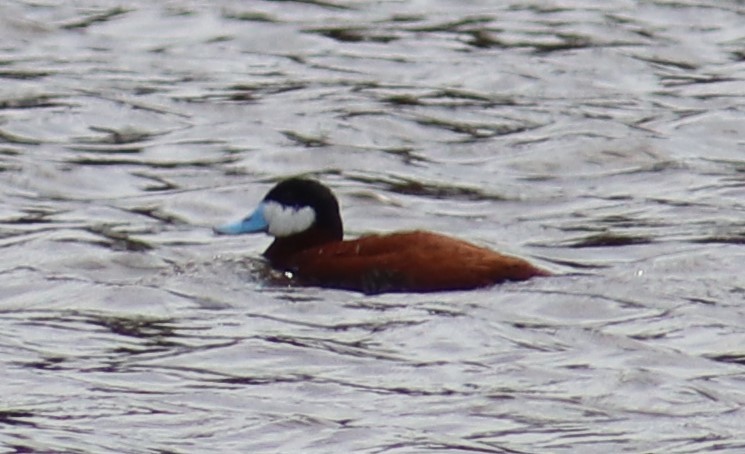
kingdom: Animalia
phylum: Chordata
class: Aves
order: Anseriformes
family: Anatidae
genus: Oxyura
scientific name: Oxyura jamaicensis
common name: Ruddy duck
